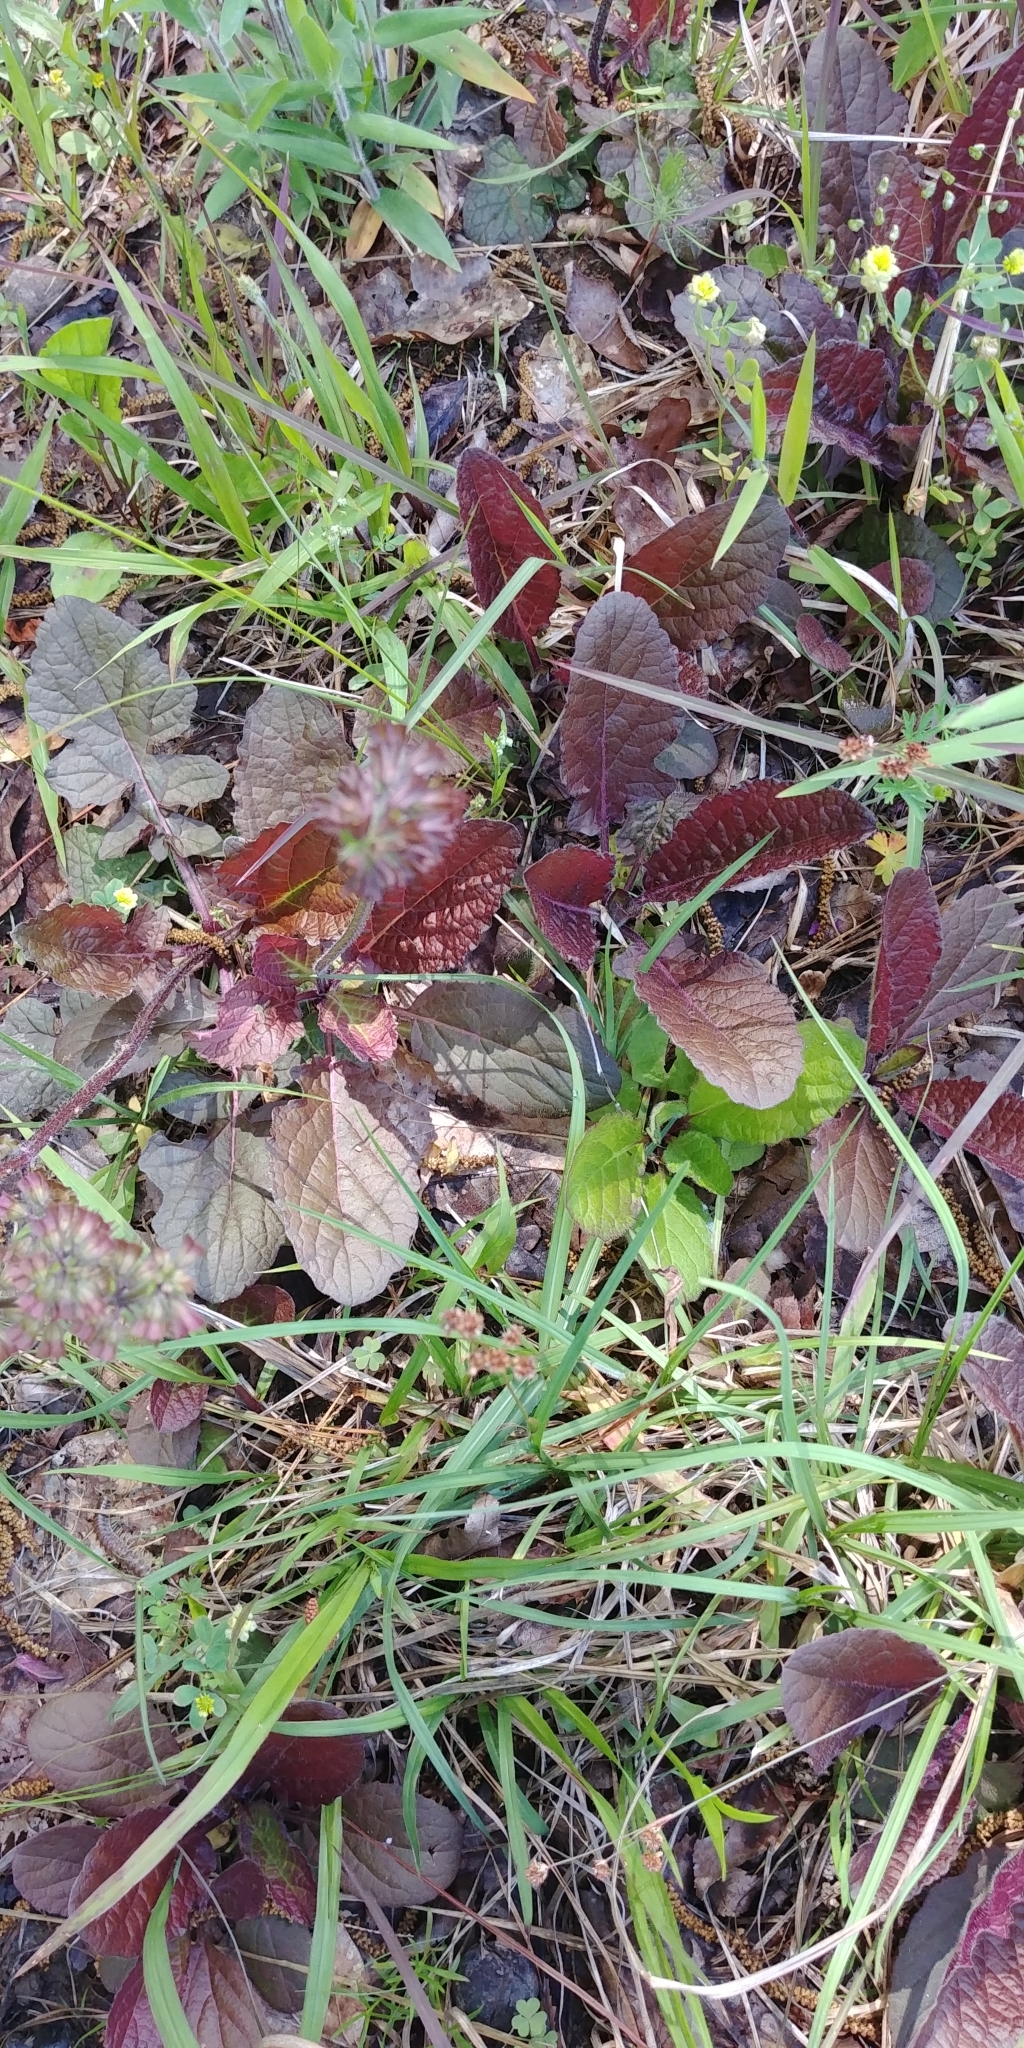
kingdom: Plantae
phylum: Tracheophyta
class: Magnoliopsida
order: Lamiales
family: Lamiaceae
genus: Salvia
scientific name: Salvia lyrata
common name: Cancerweed
